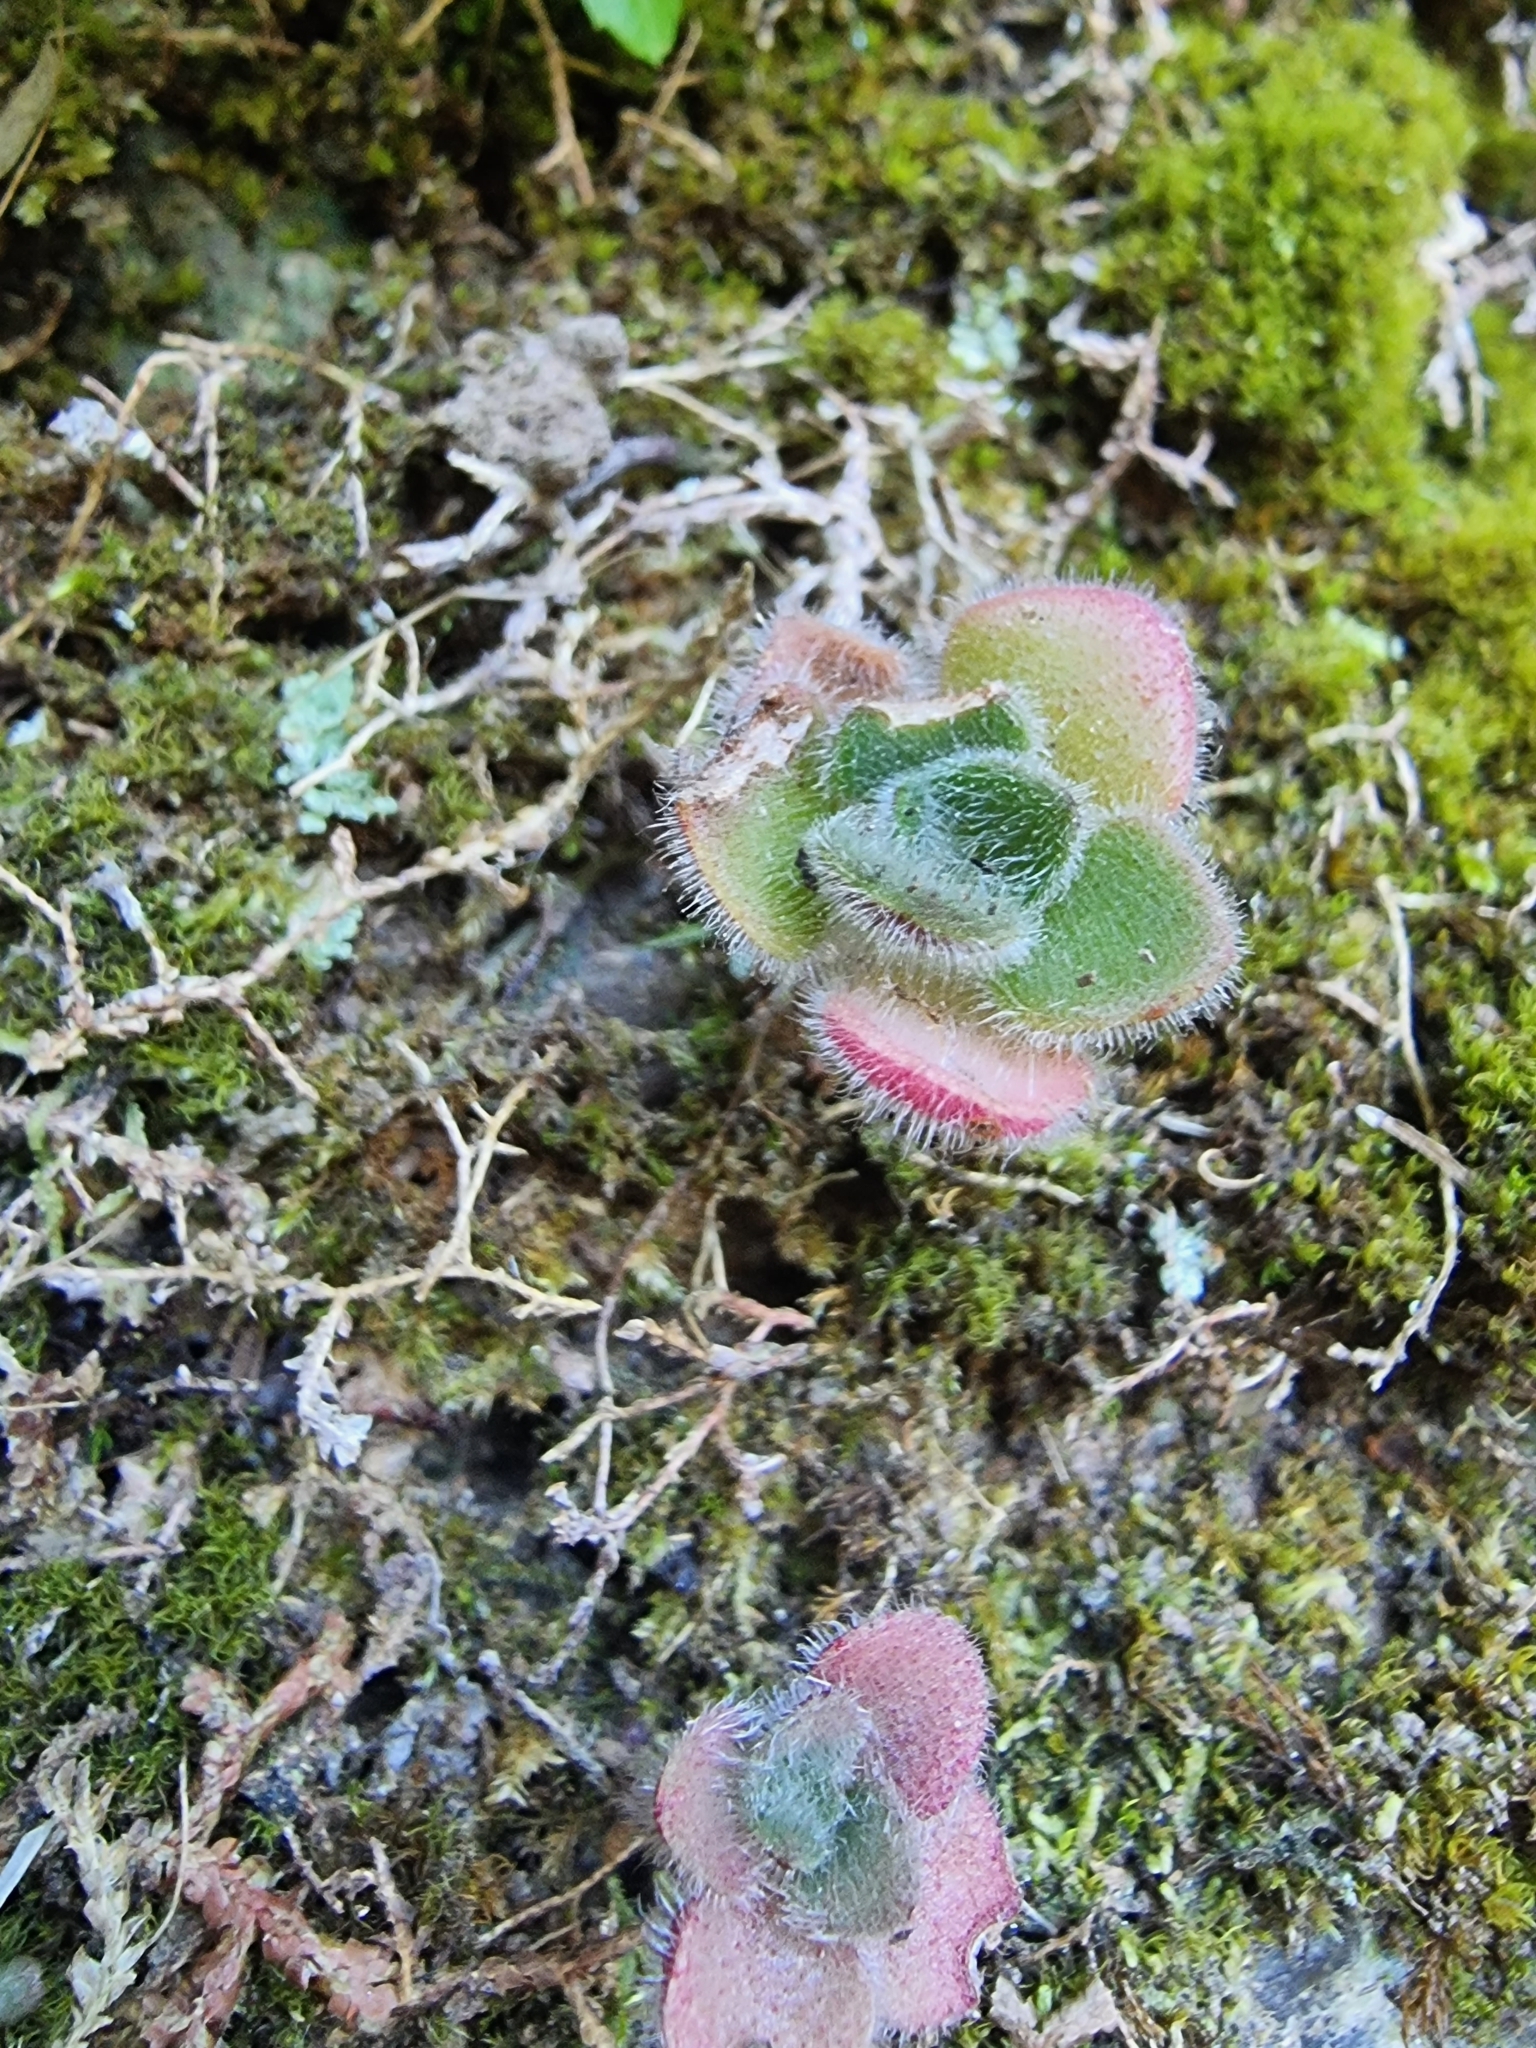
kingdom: Plantae
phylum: Tracheophyta
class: Magnoliopsida
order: Saxifragales
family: Crassulaceae
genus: Aichryson
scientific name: Aichryson villosum
